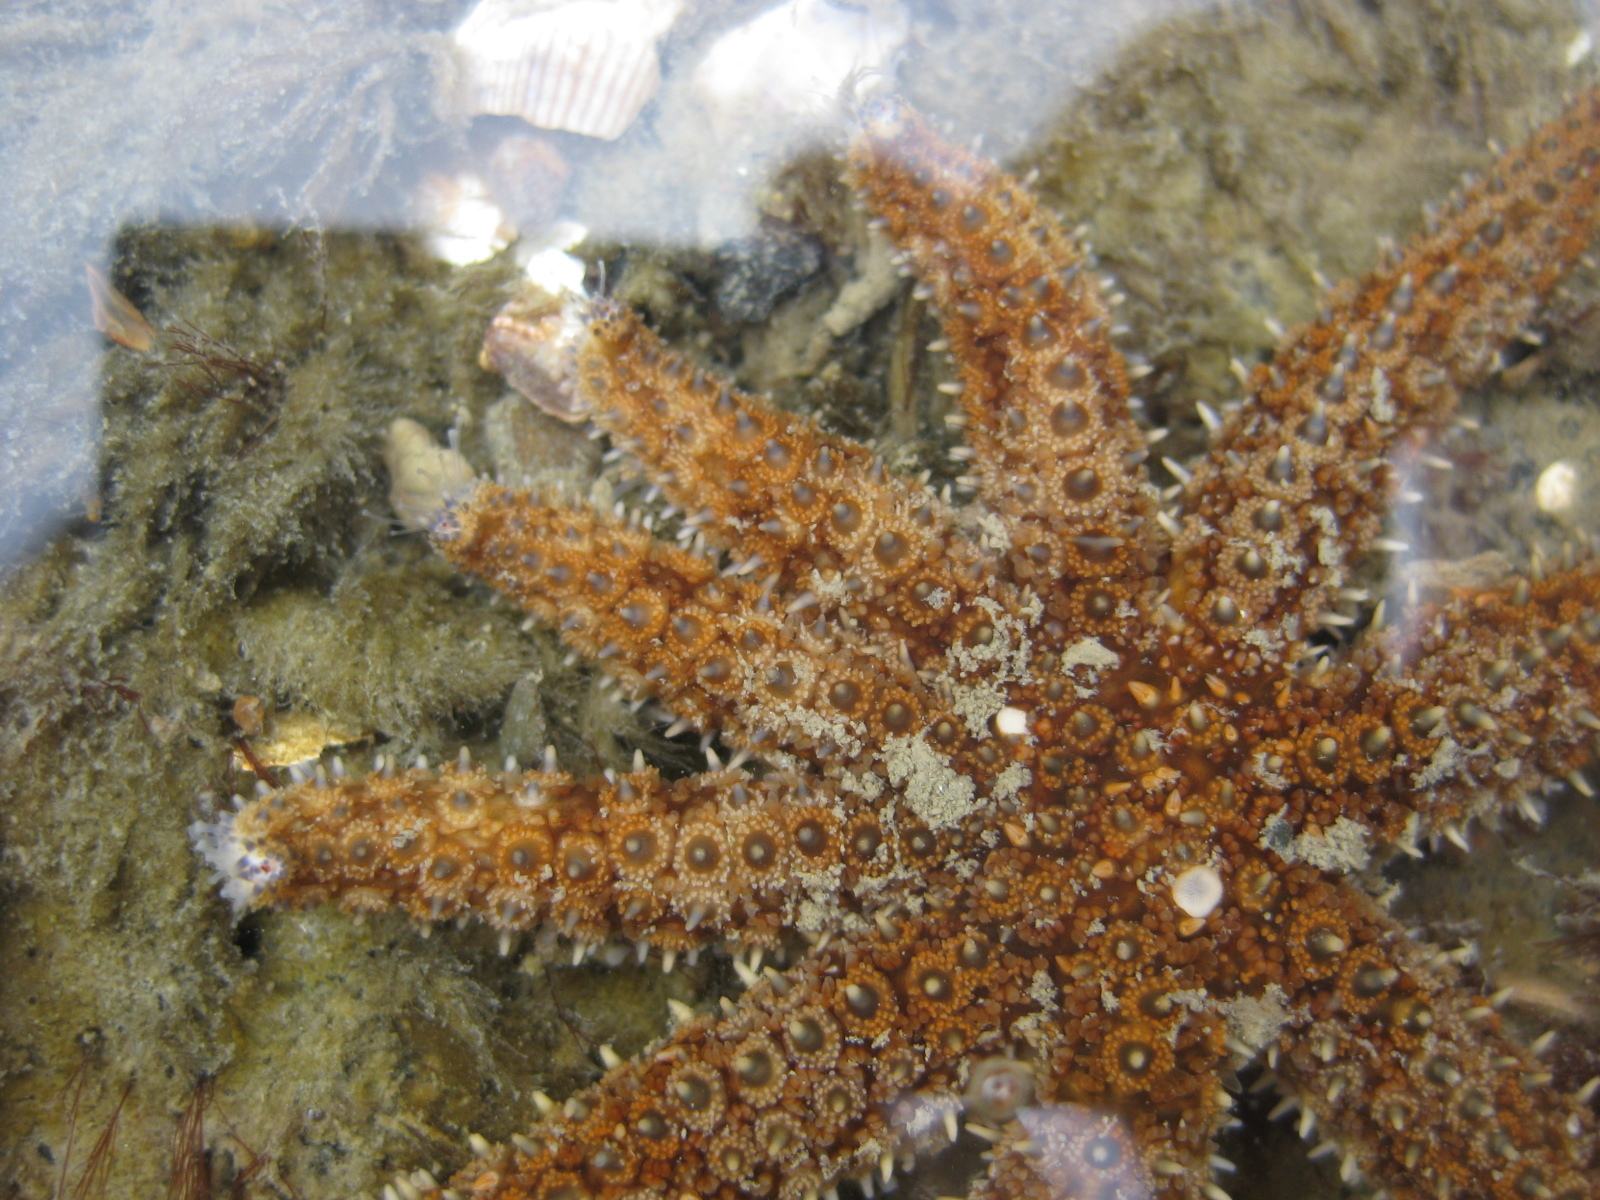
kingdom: Animalia
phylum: Echinodermata
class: Asteroidea
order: Forcipulatida
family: Asteriidae
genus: Coscinasterias
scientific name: Coscinasterias muricata
